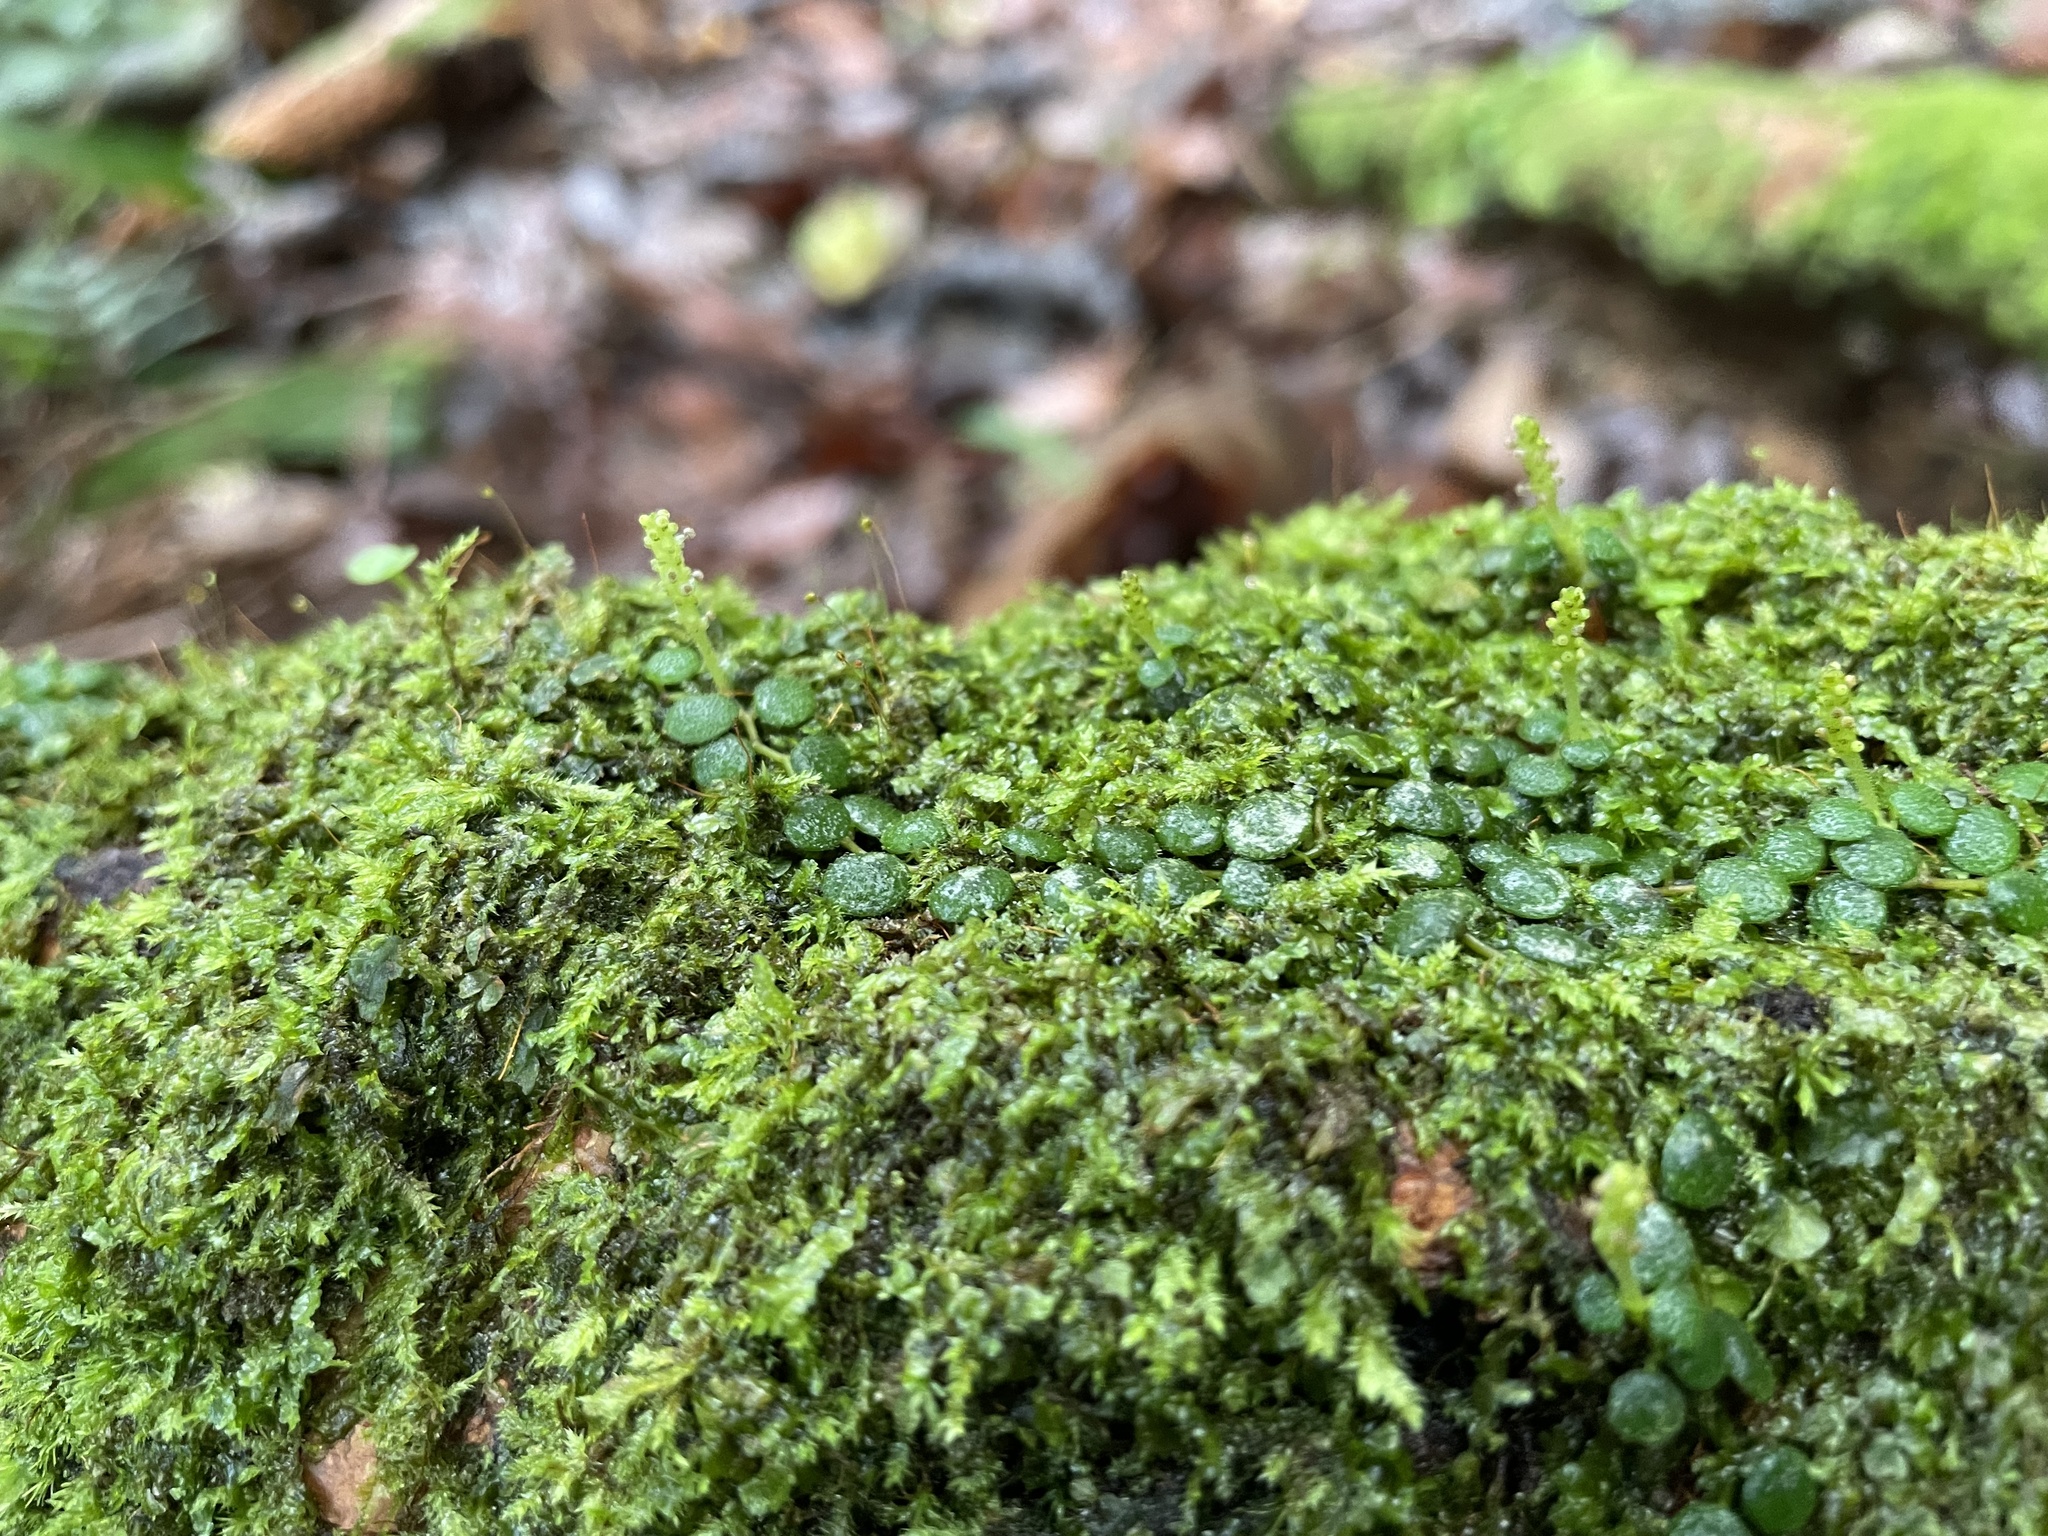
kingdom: Plantae
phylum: Tracheophyta
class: Magnoliopsida
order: Piperales
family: Piperaceae
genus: Peperomia
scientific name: Peperomia ebingeri
